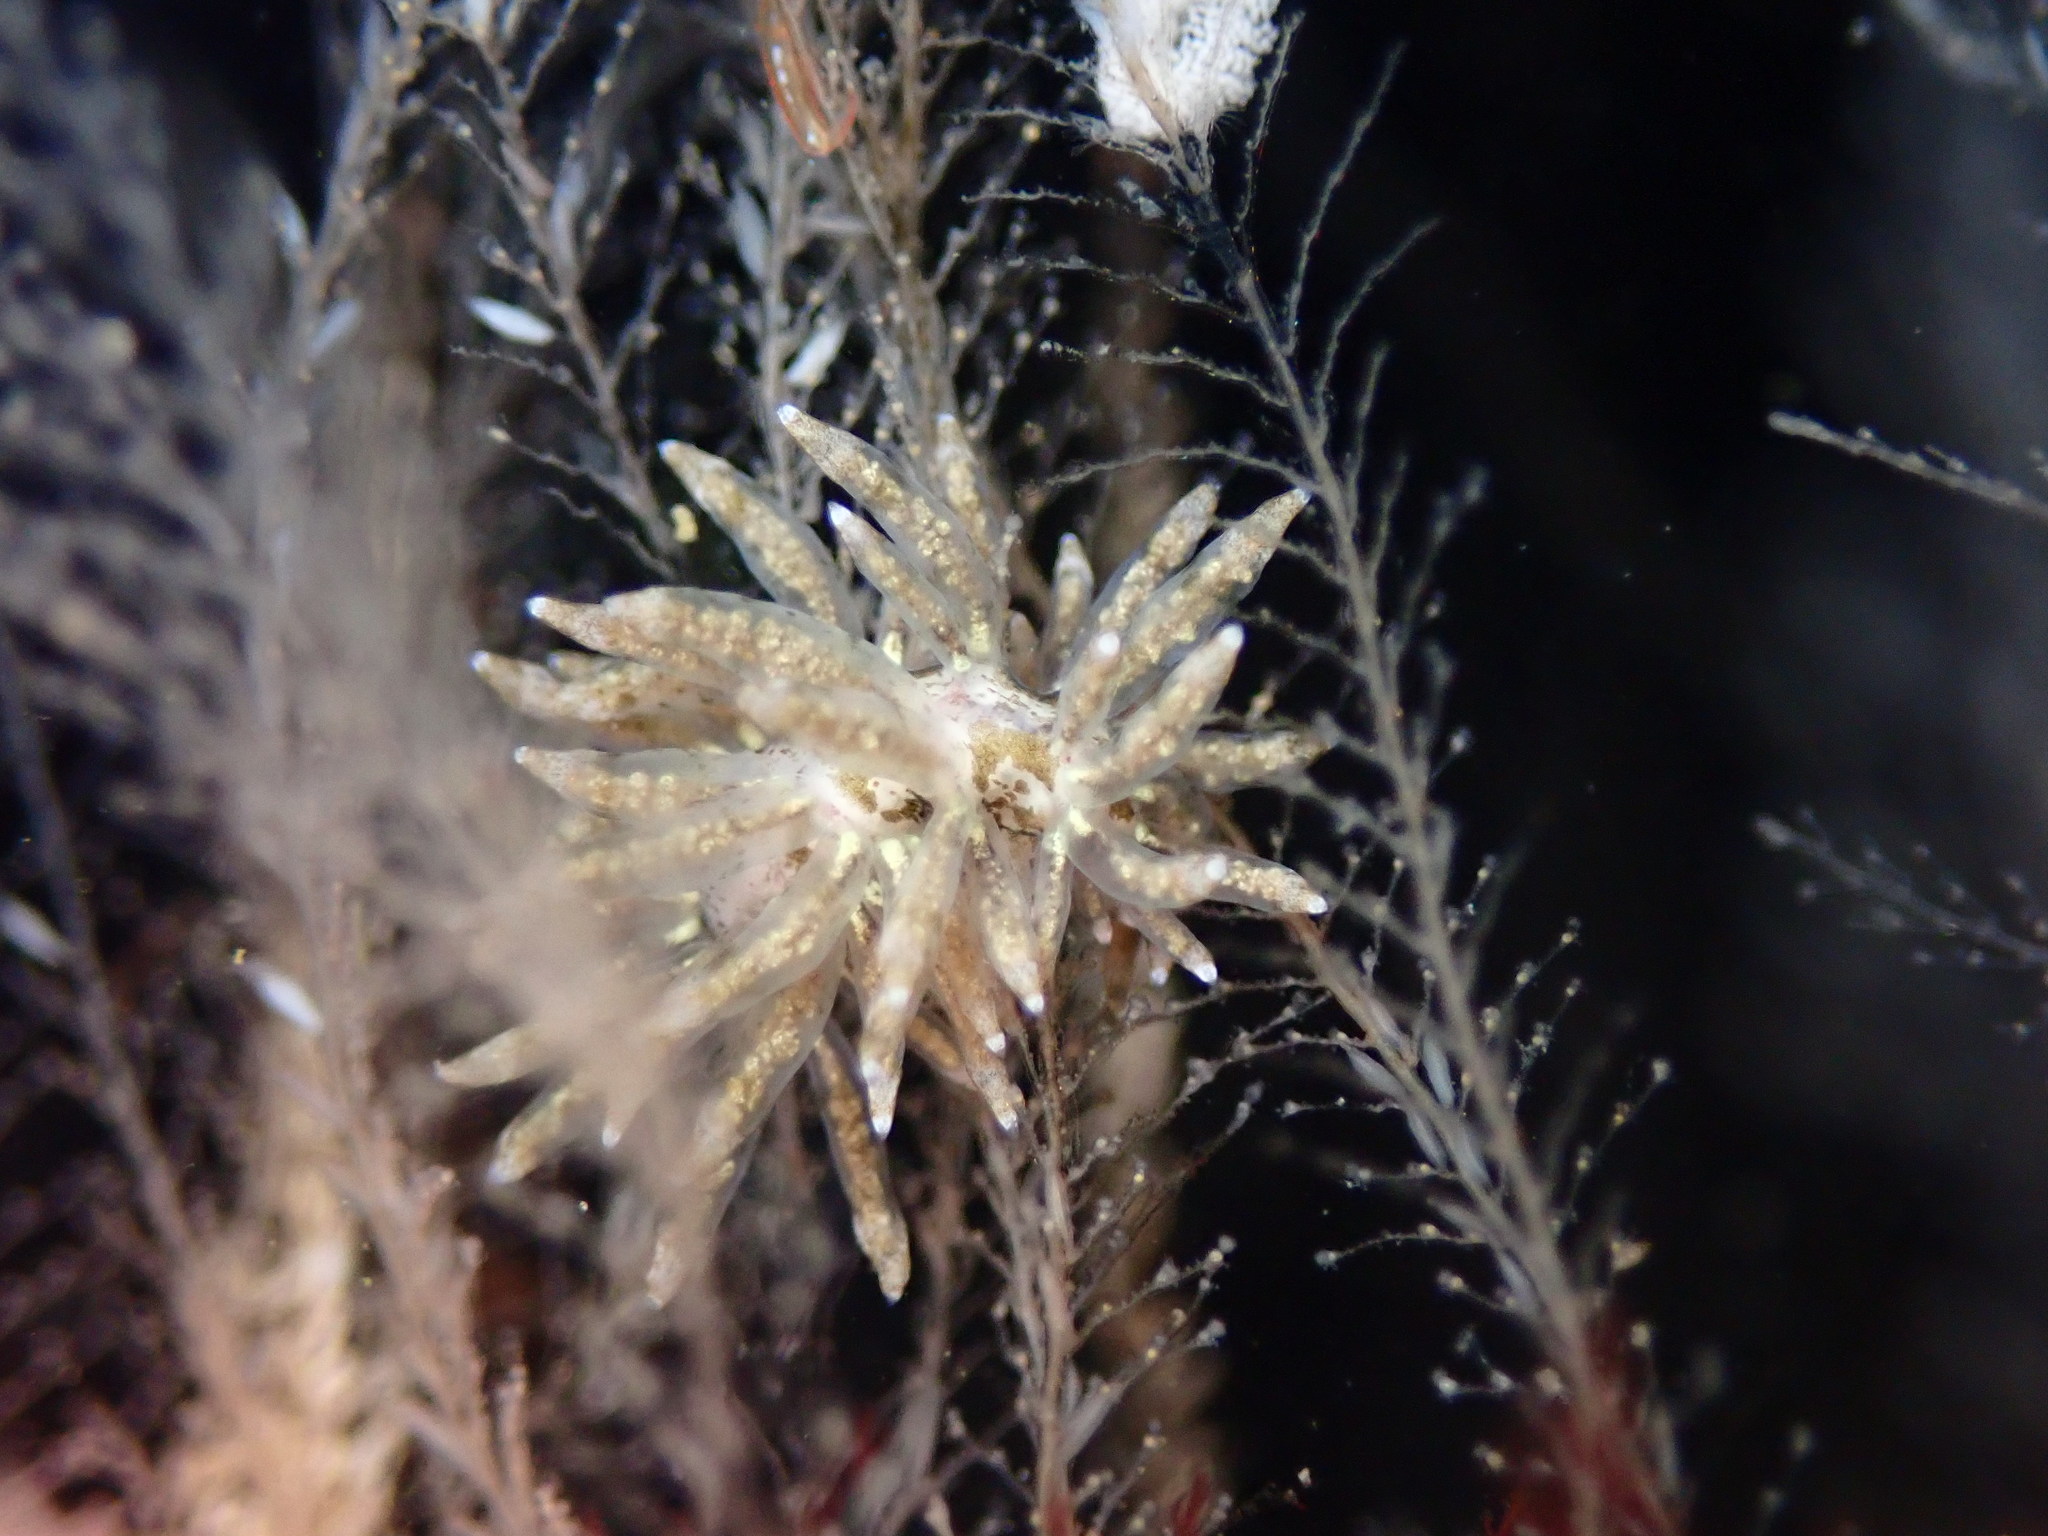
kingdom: Animalia
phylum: Mollusca
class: Gastropoda
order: Nudibranchia
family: Eubranchidae
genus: Eubranchus
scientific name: Eubranchus rustyus
